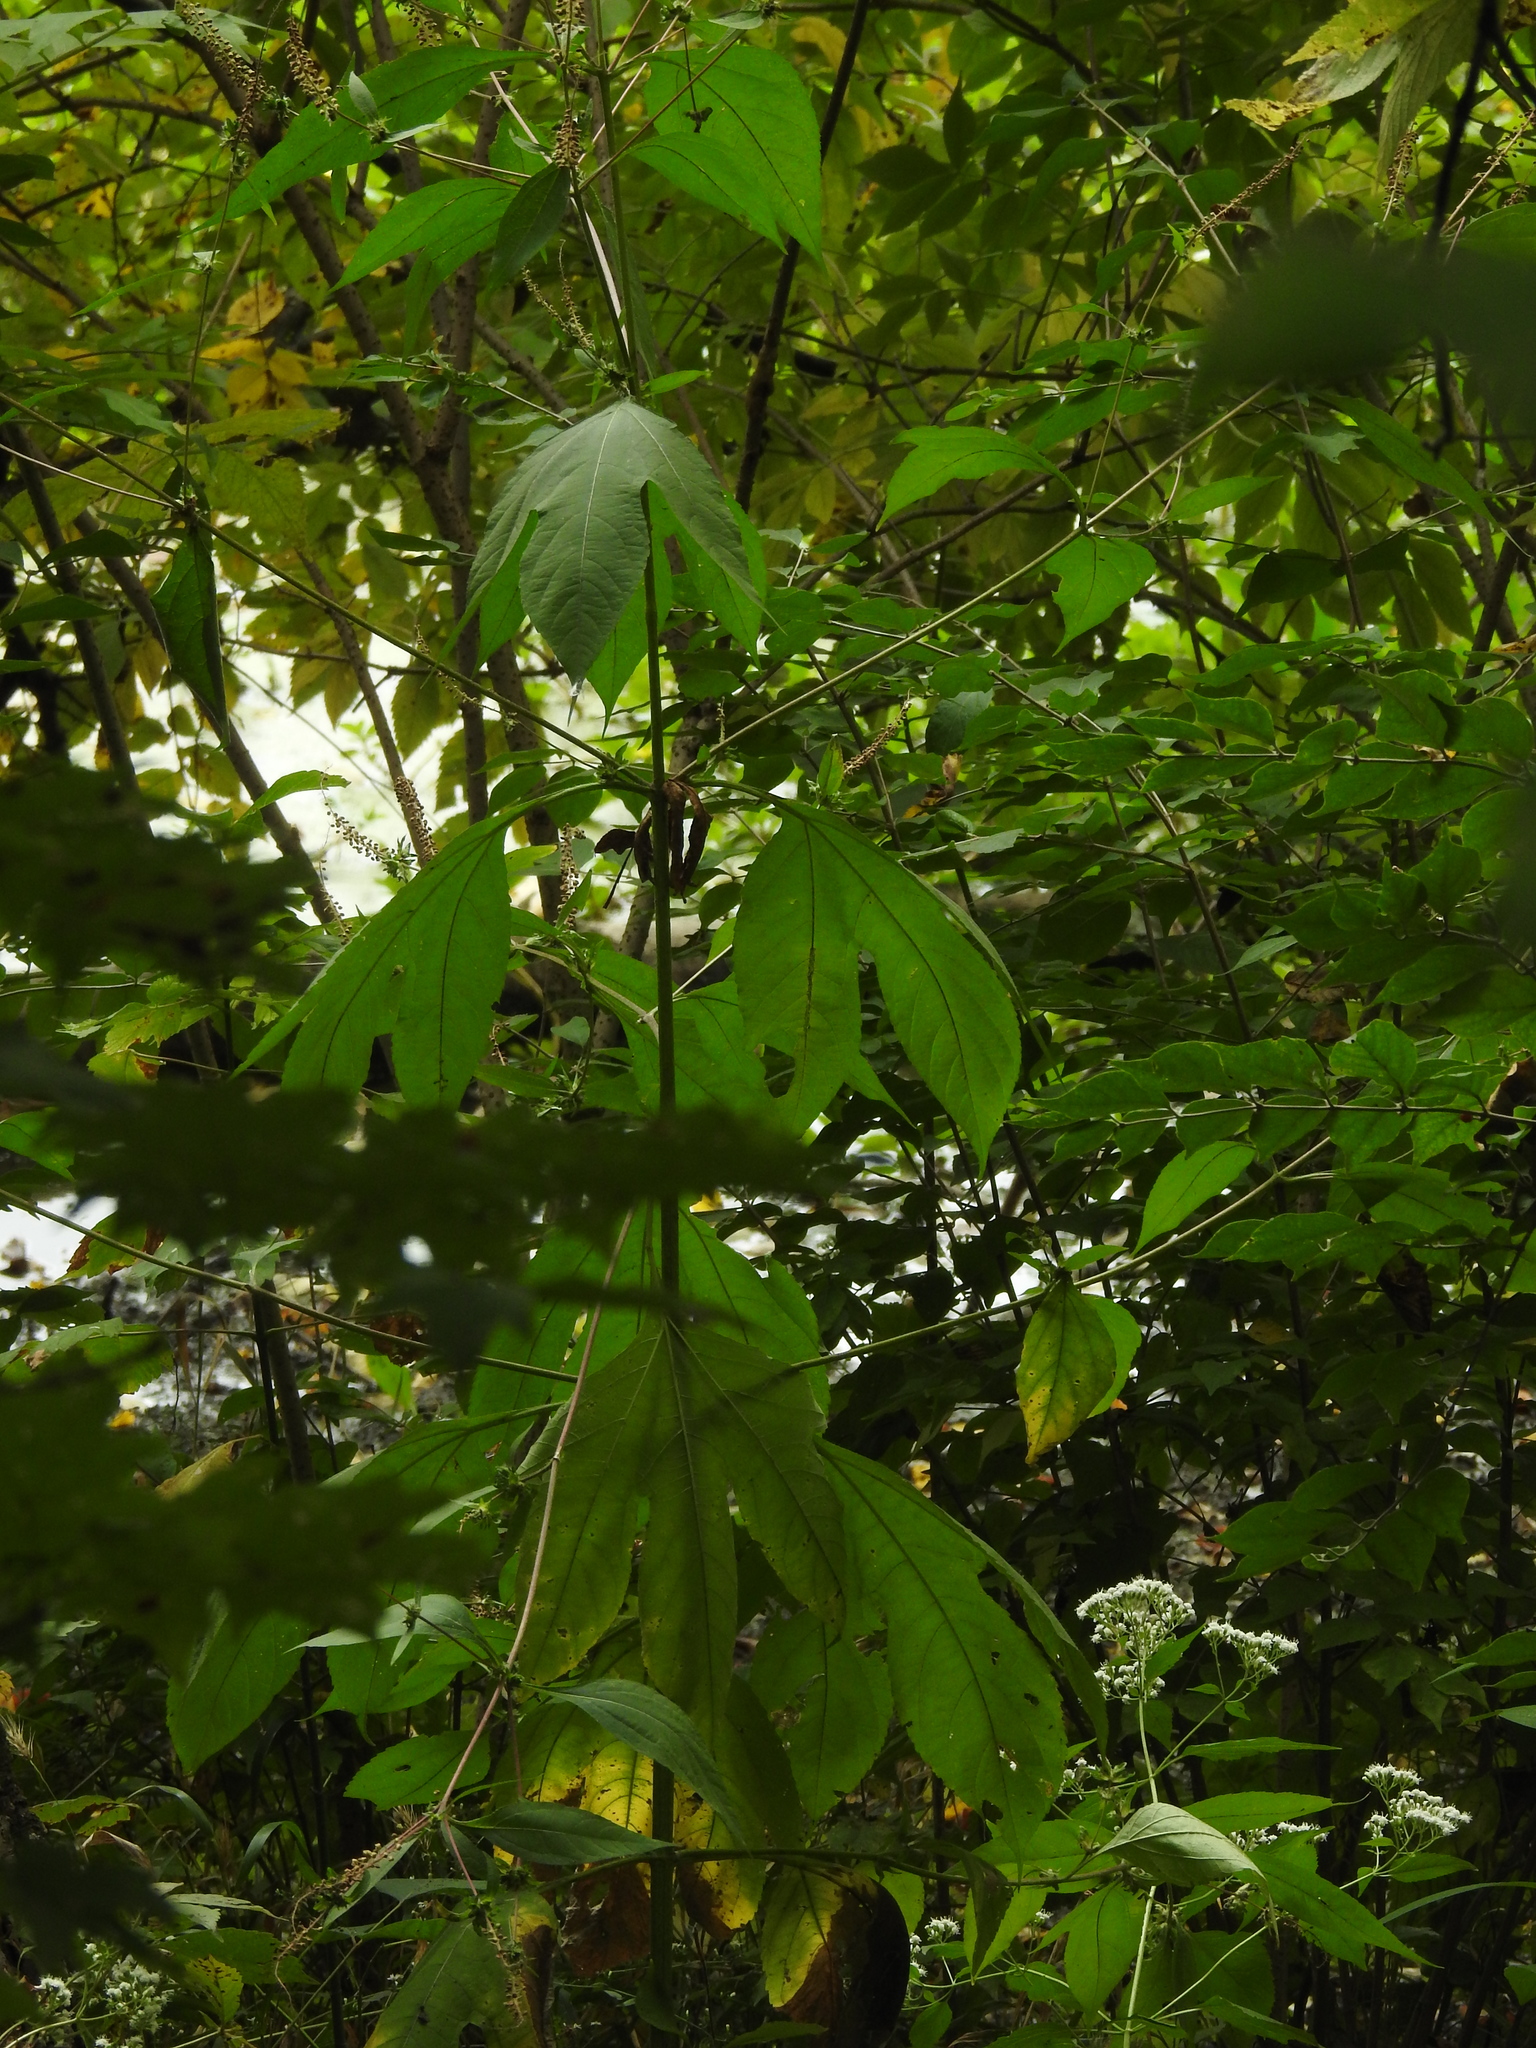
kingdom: Plantae
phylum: Tracheophyta
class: Magnoliopsida
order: Asterales
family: Asteraceae
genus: Ambrosia
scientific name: Ambrosia trifida
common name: Giant ragweed
